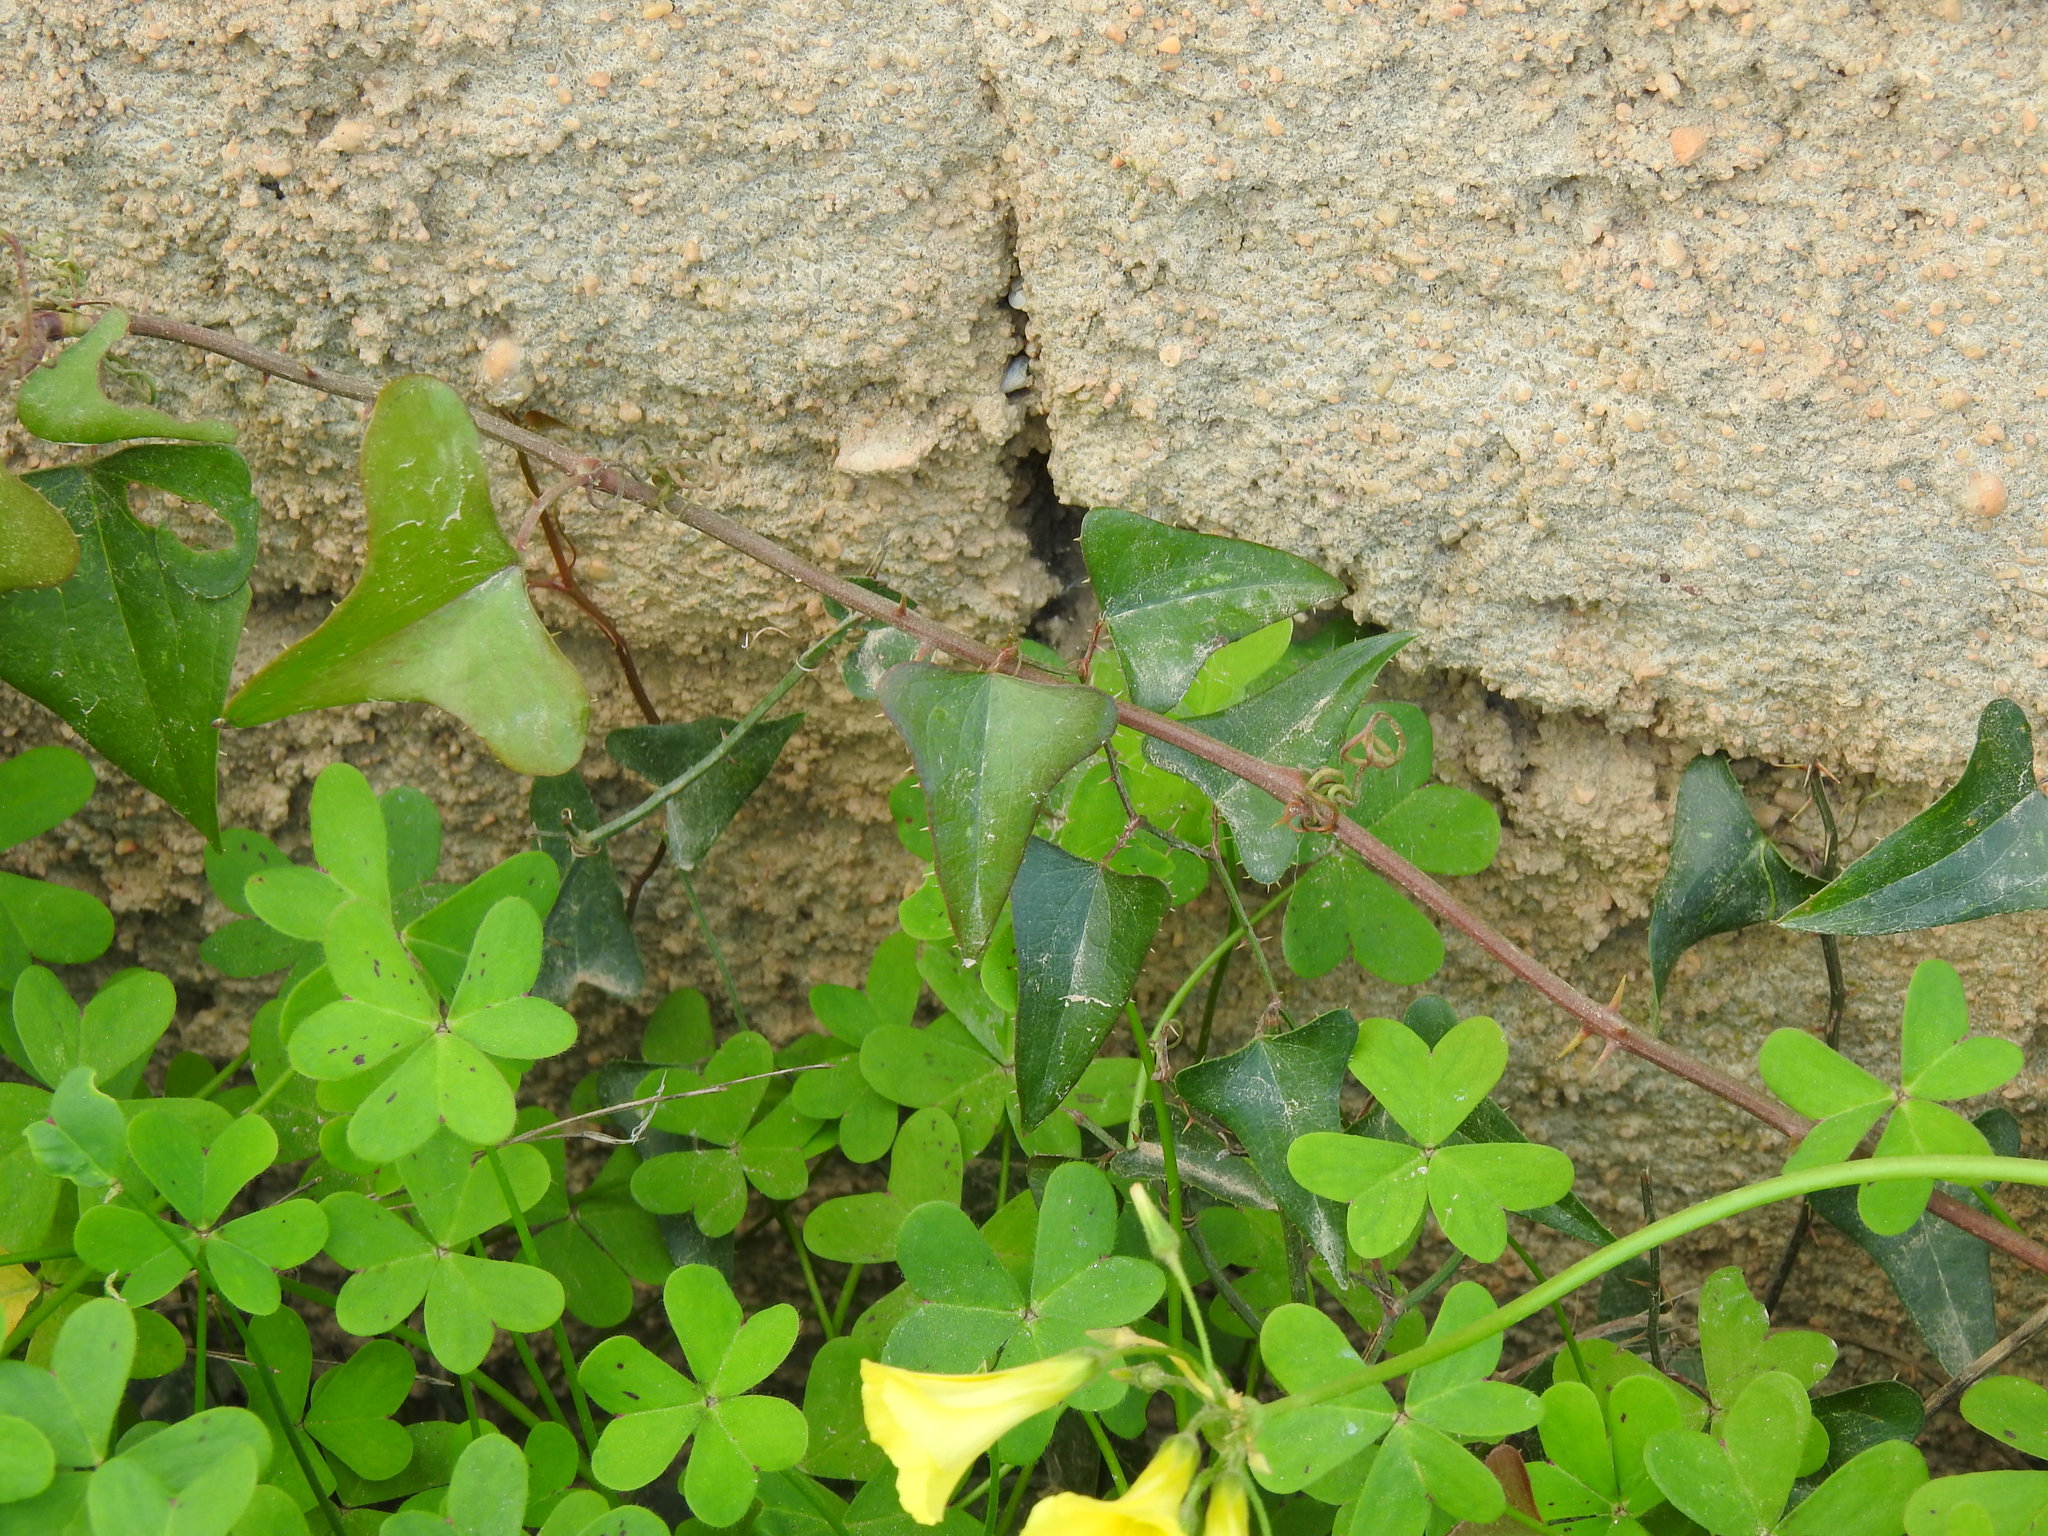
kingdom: Plantae
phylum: Tracheophyta
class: Liliopsida
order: Liliales
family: Smilacaceae
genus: Smilax
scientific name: Smilax aspera
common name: Common smilax
